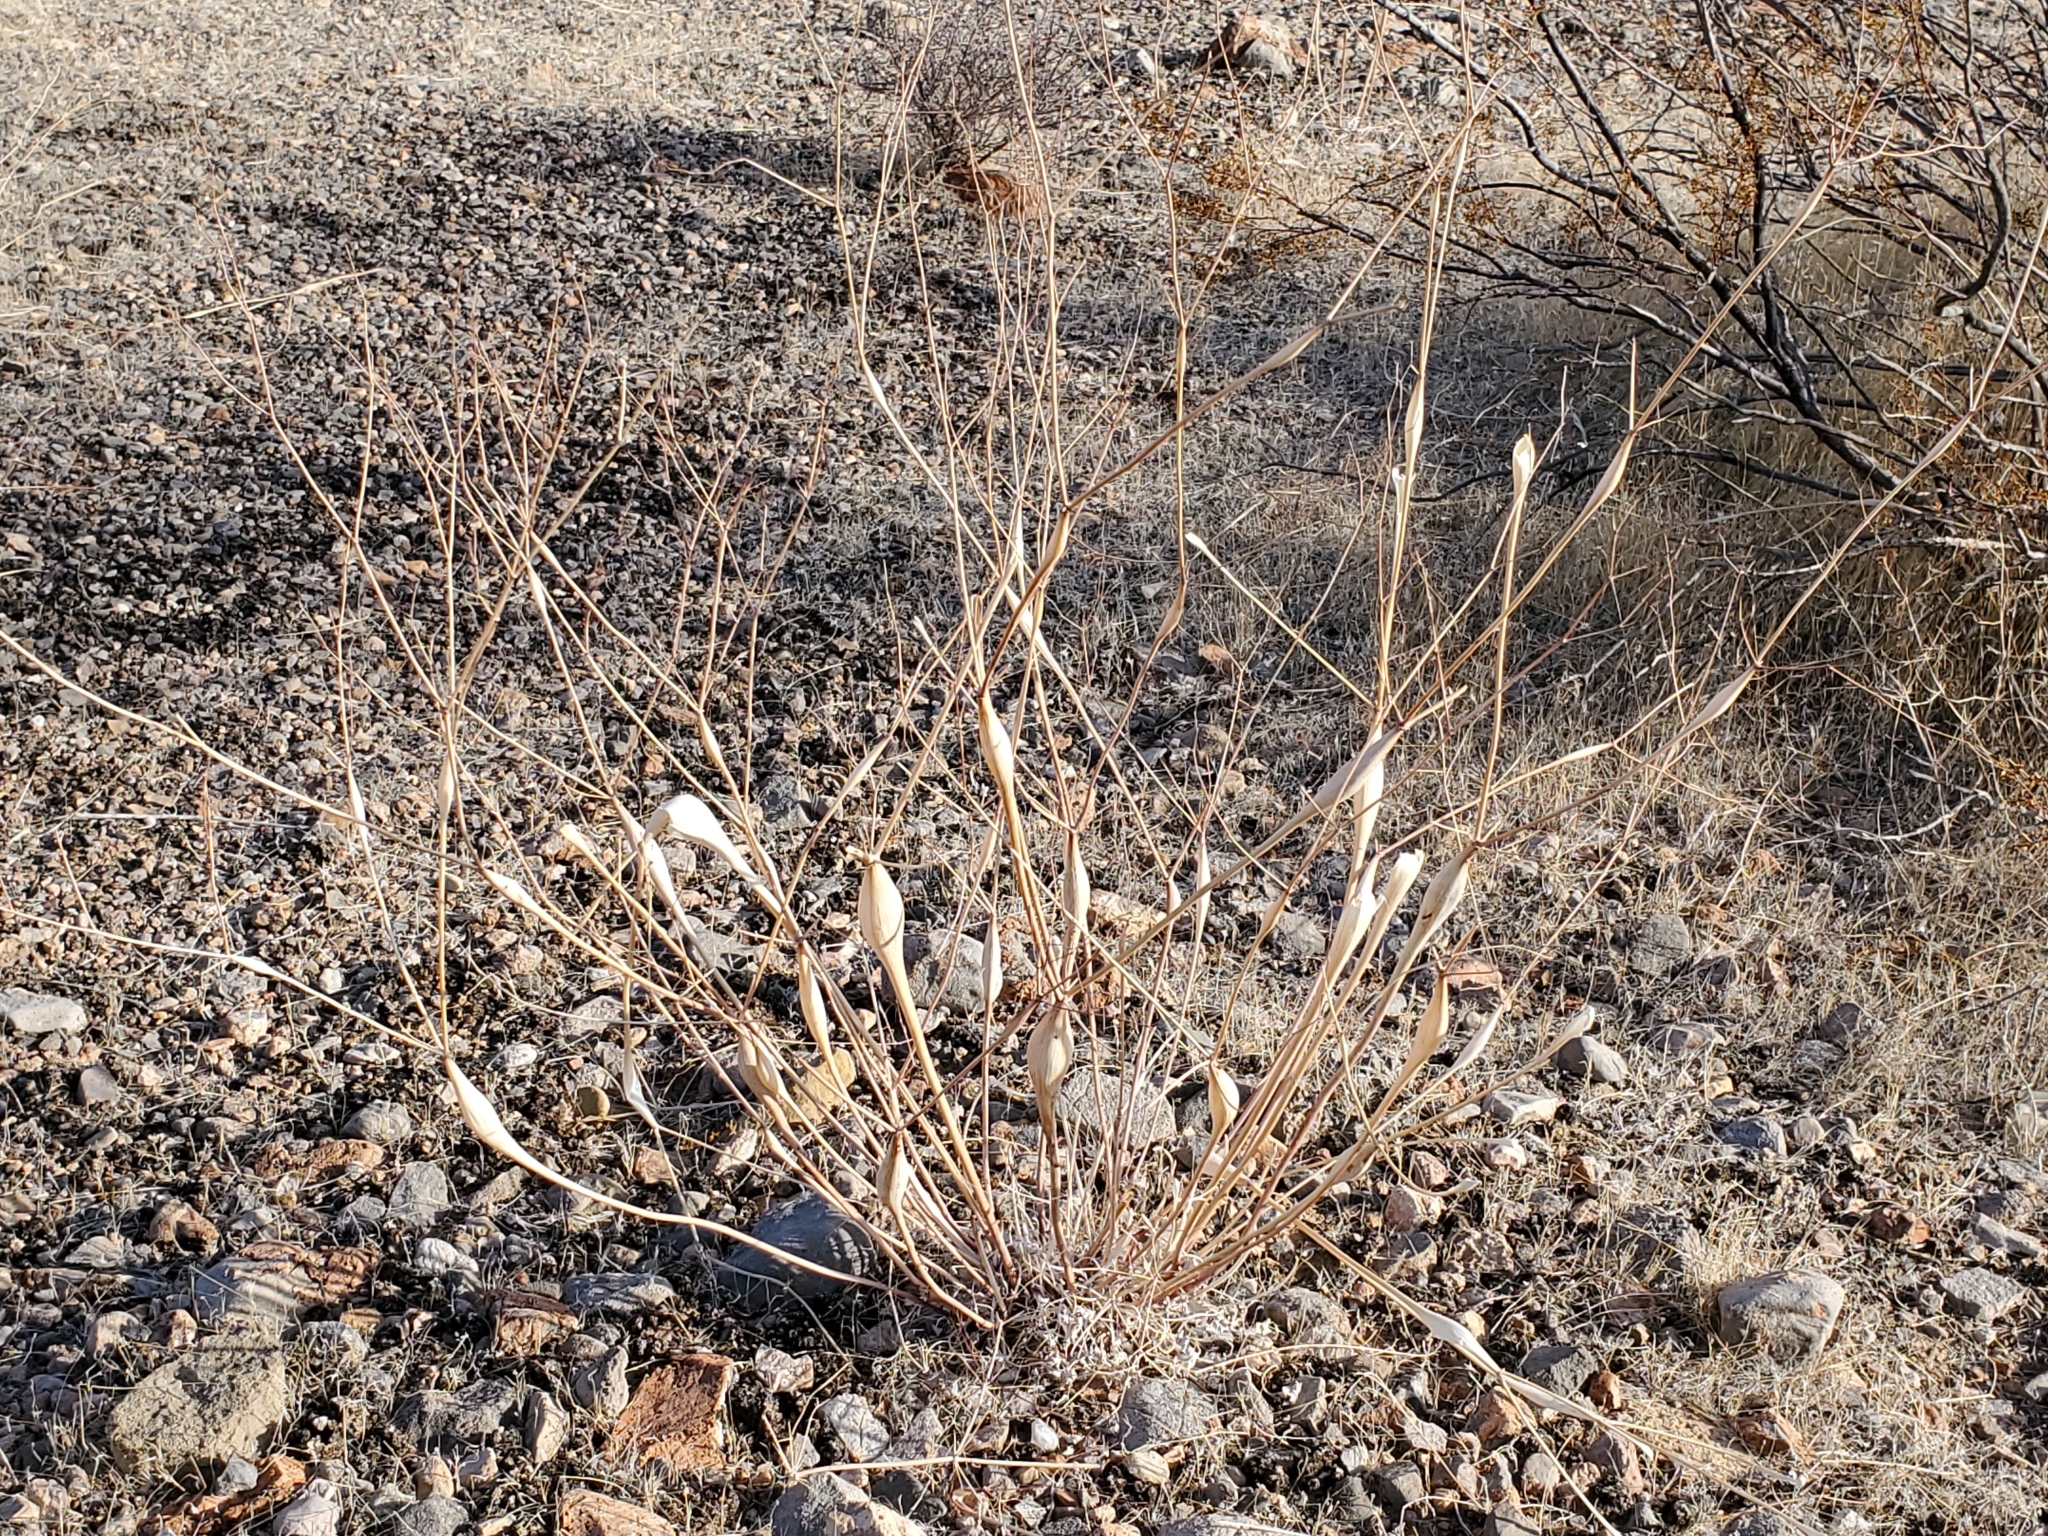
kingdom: Plantae
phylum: Tracheophyta
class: Magnoliopsida
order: Caryophyllales
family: Polygonaceae
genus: Eriogonum
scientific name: Eriogonum inflatum
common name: Desert trumpet
